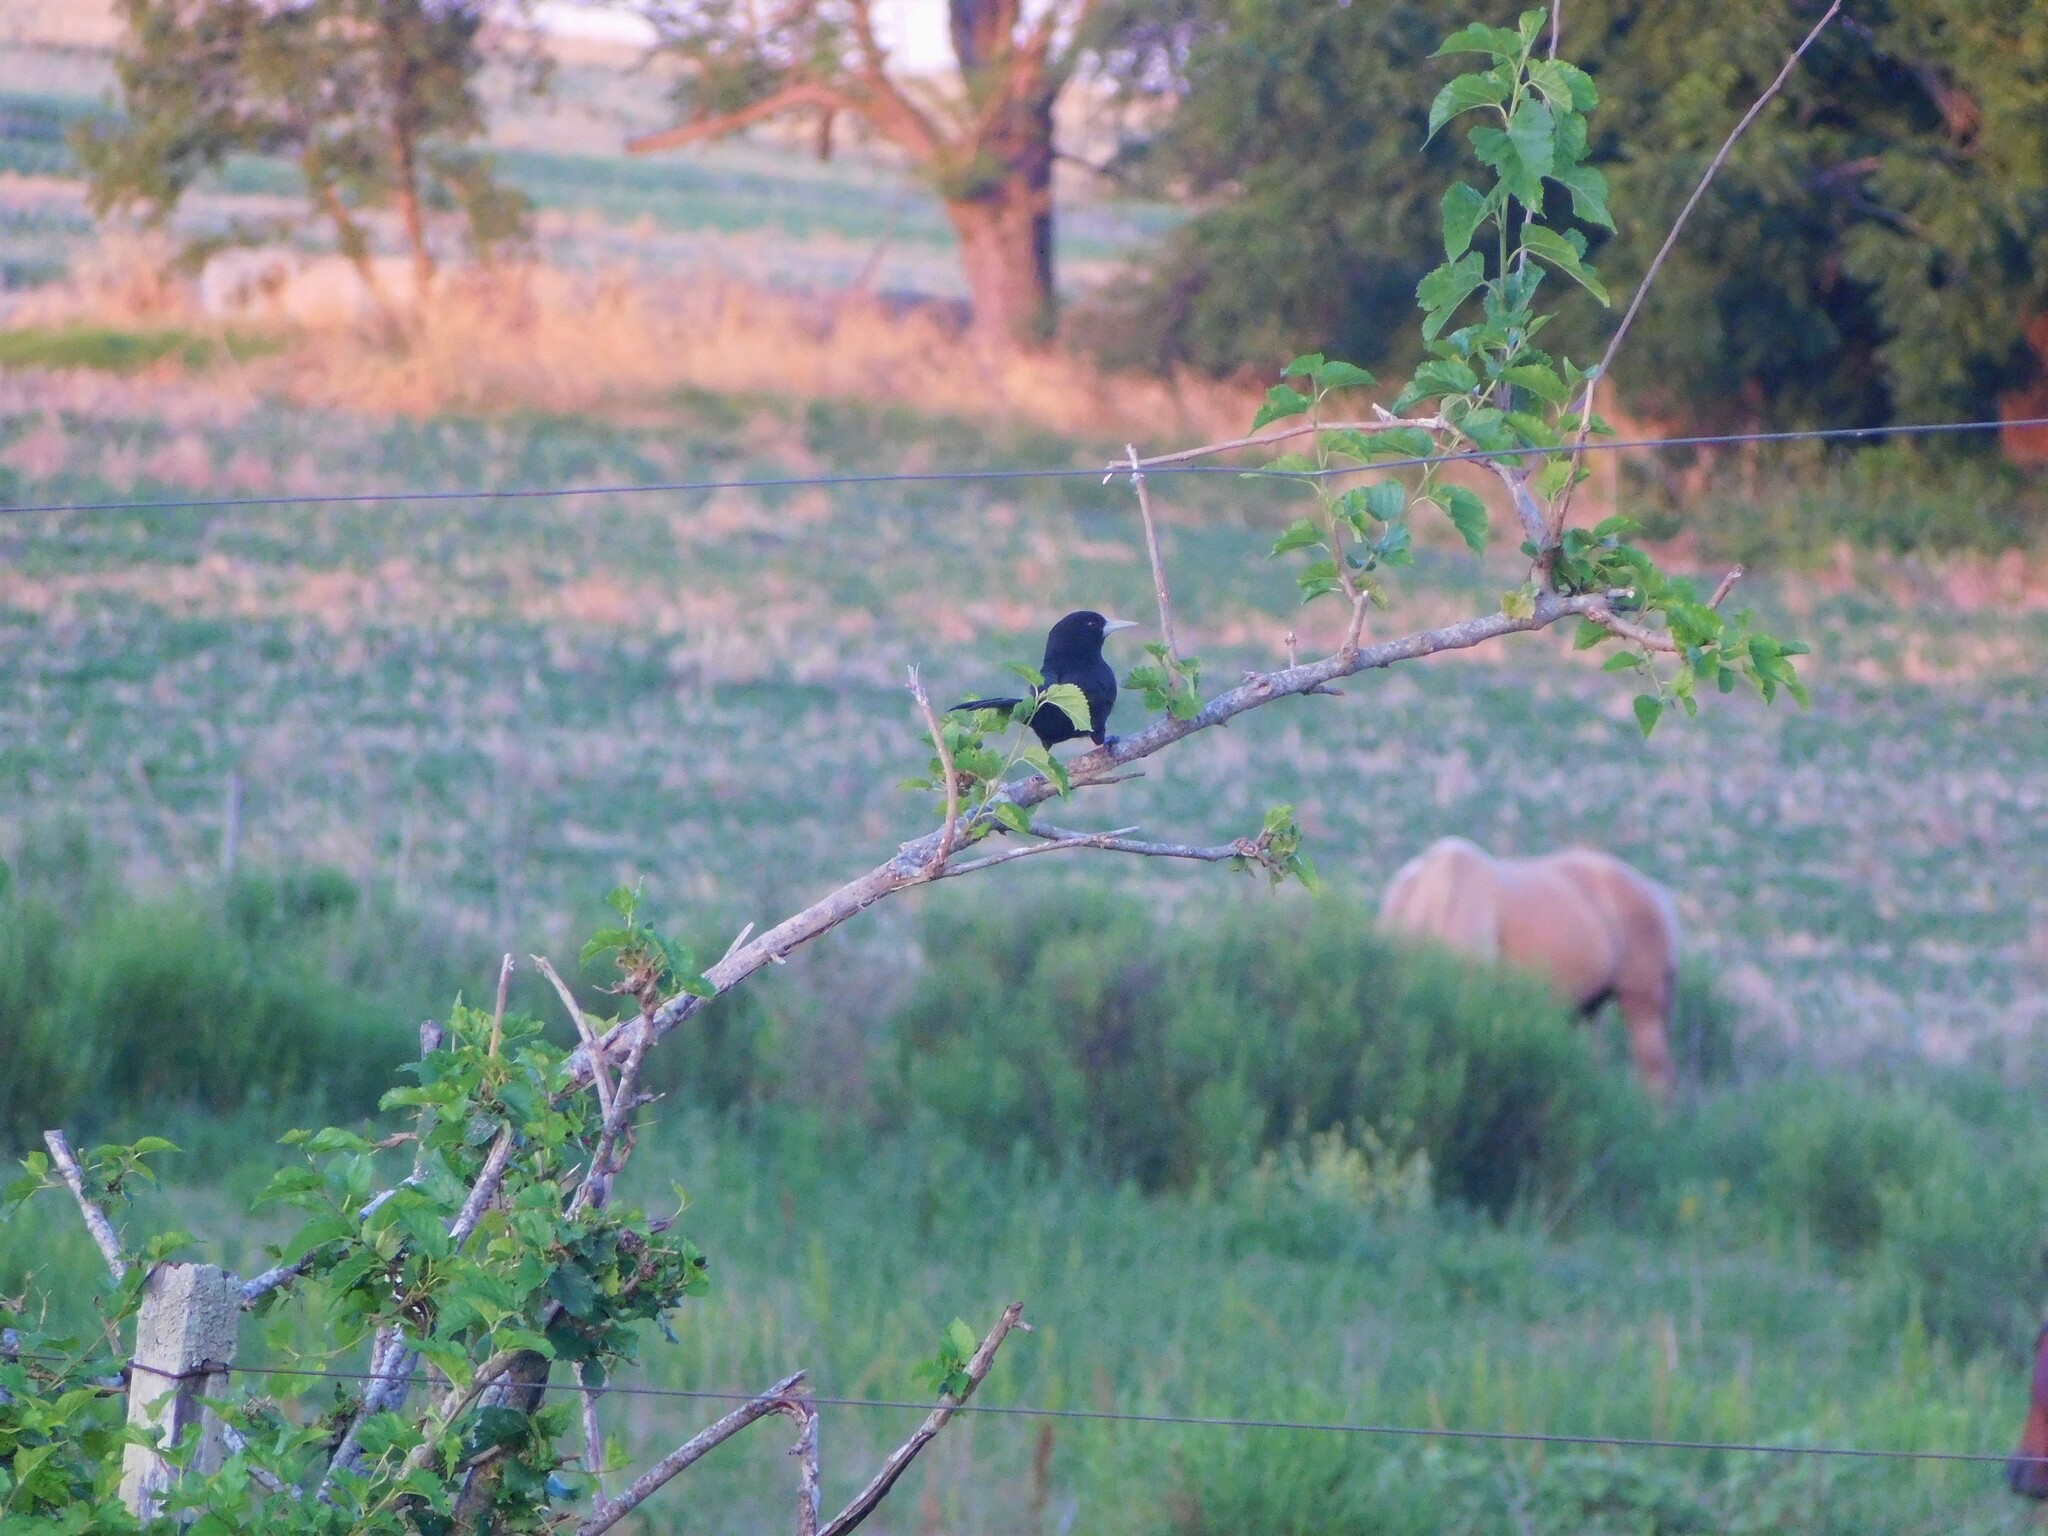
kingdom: Animalia
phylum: Chordata
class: Aves
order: Passeriformes
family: Icteridae
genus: Cacicus
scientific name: Cacicus solitarius
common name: Solitary cacique
